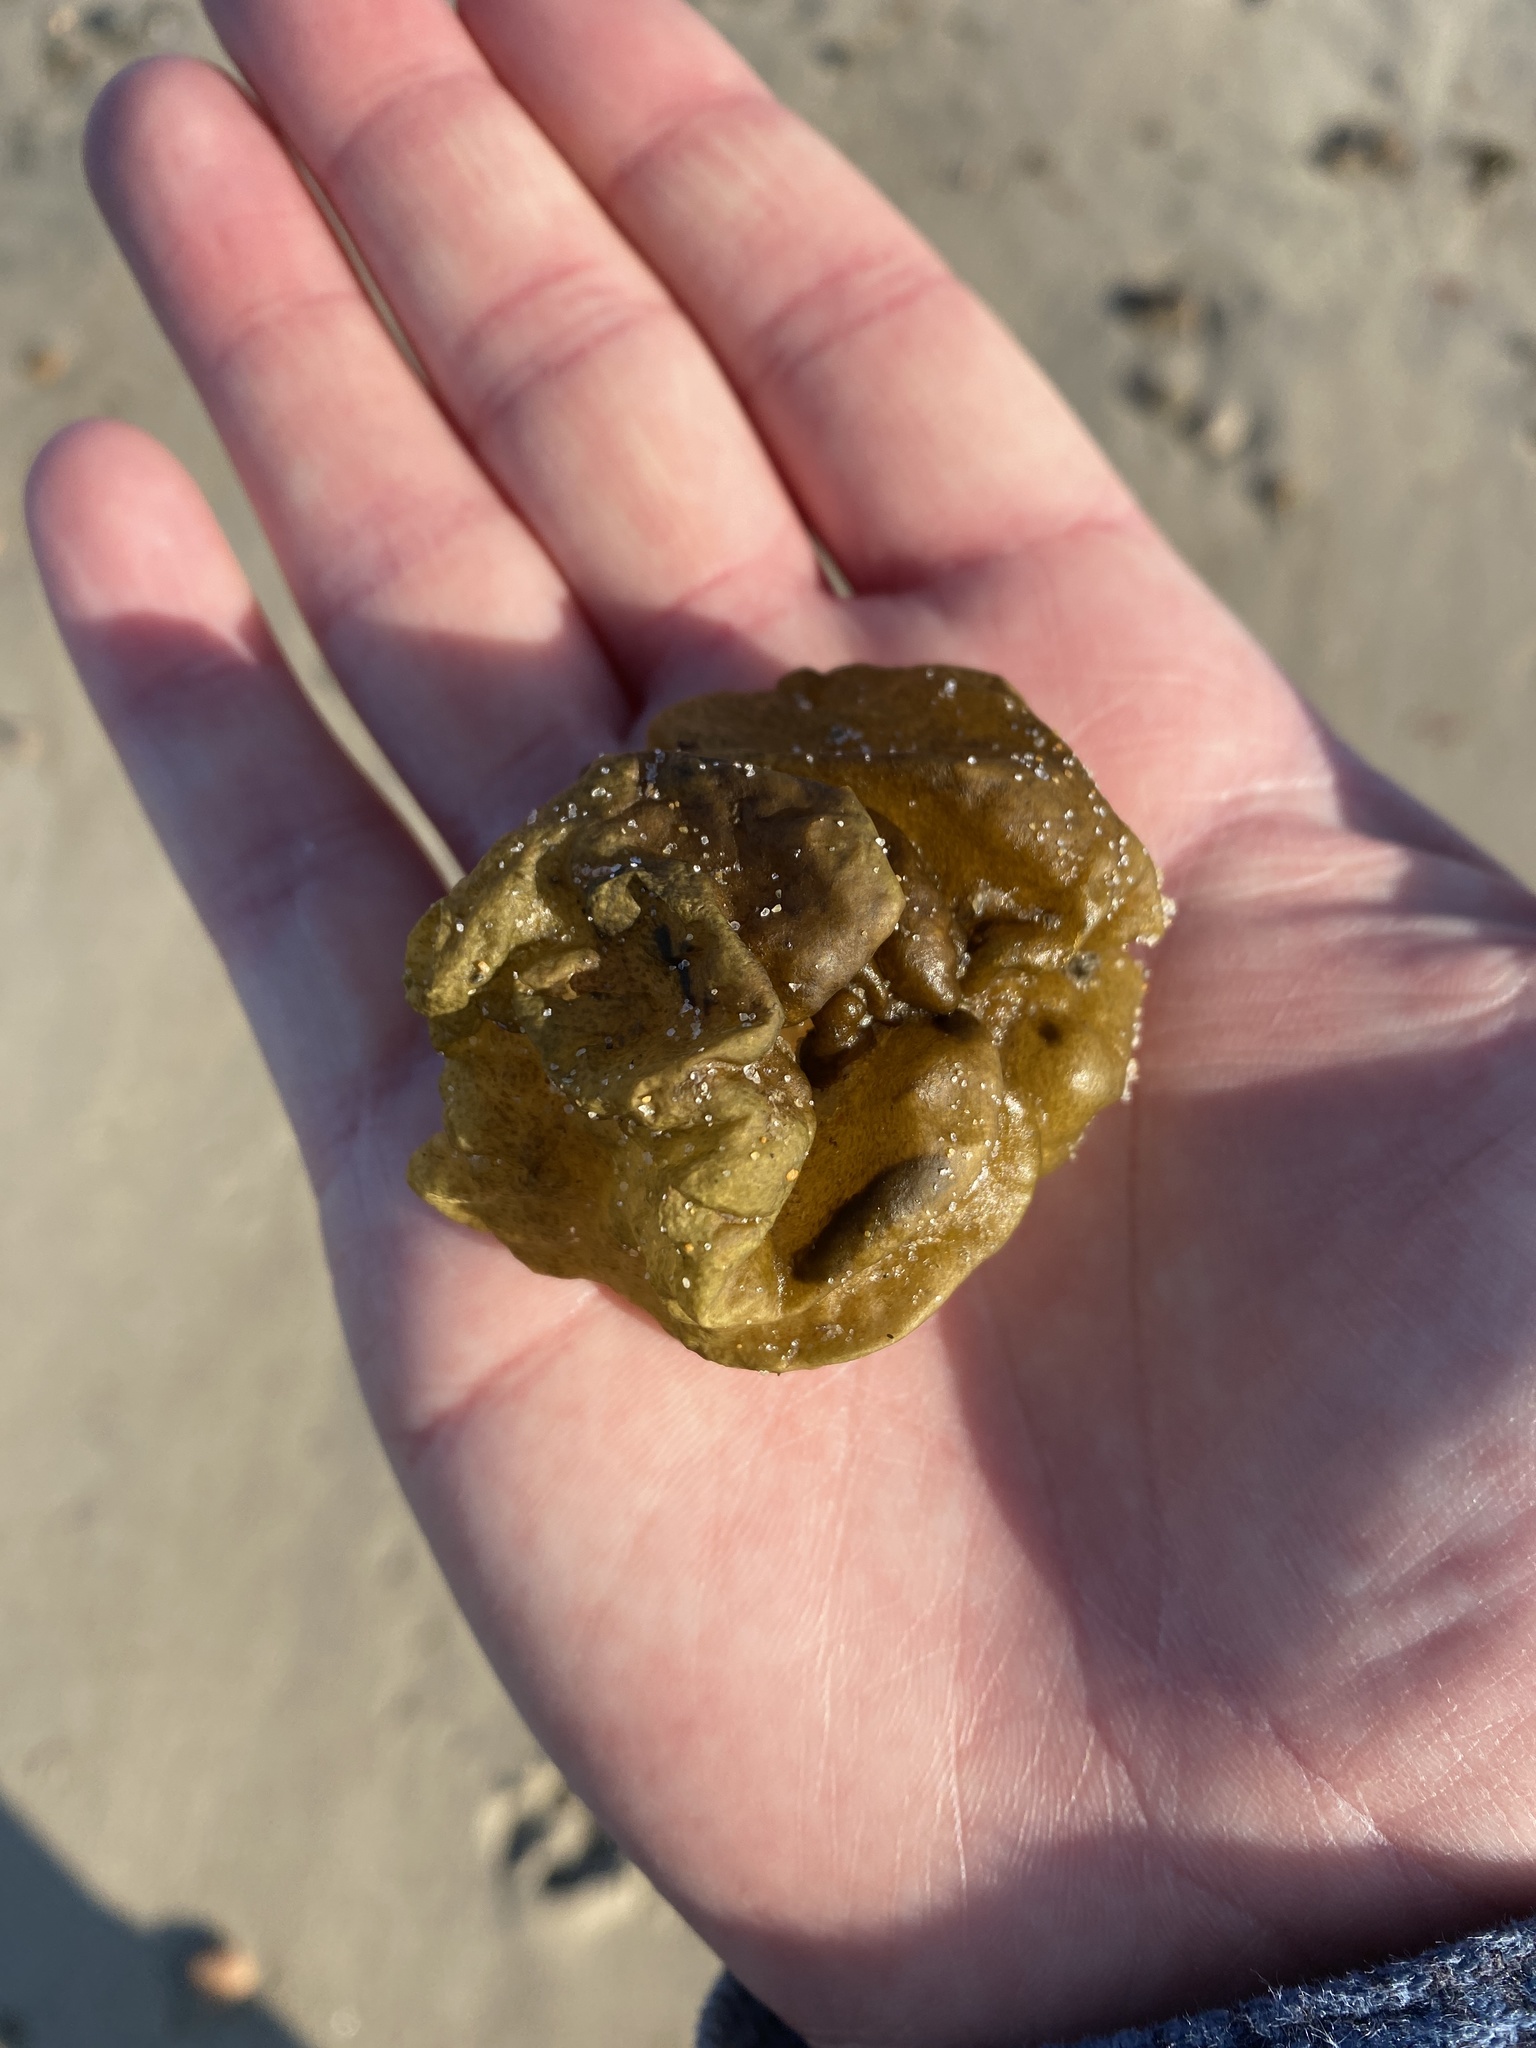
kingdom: Chromista
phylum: Ochrophyta
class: Phaeophyceae
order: Scytosiphonales
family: Scytosiphonaceae
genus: Colpomenia
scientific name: Colpomenia peregrina
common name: Oyster thief
